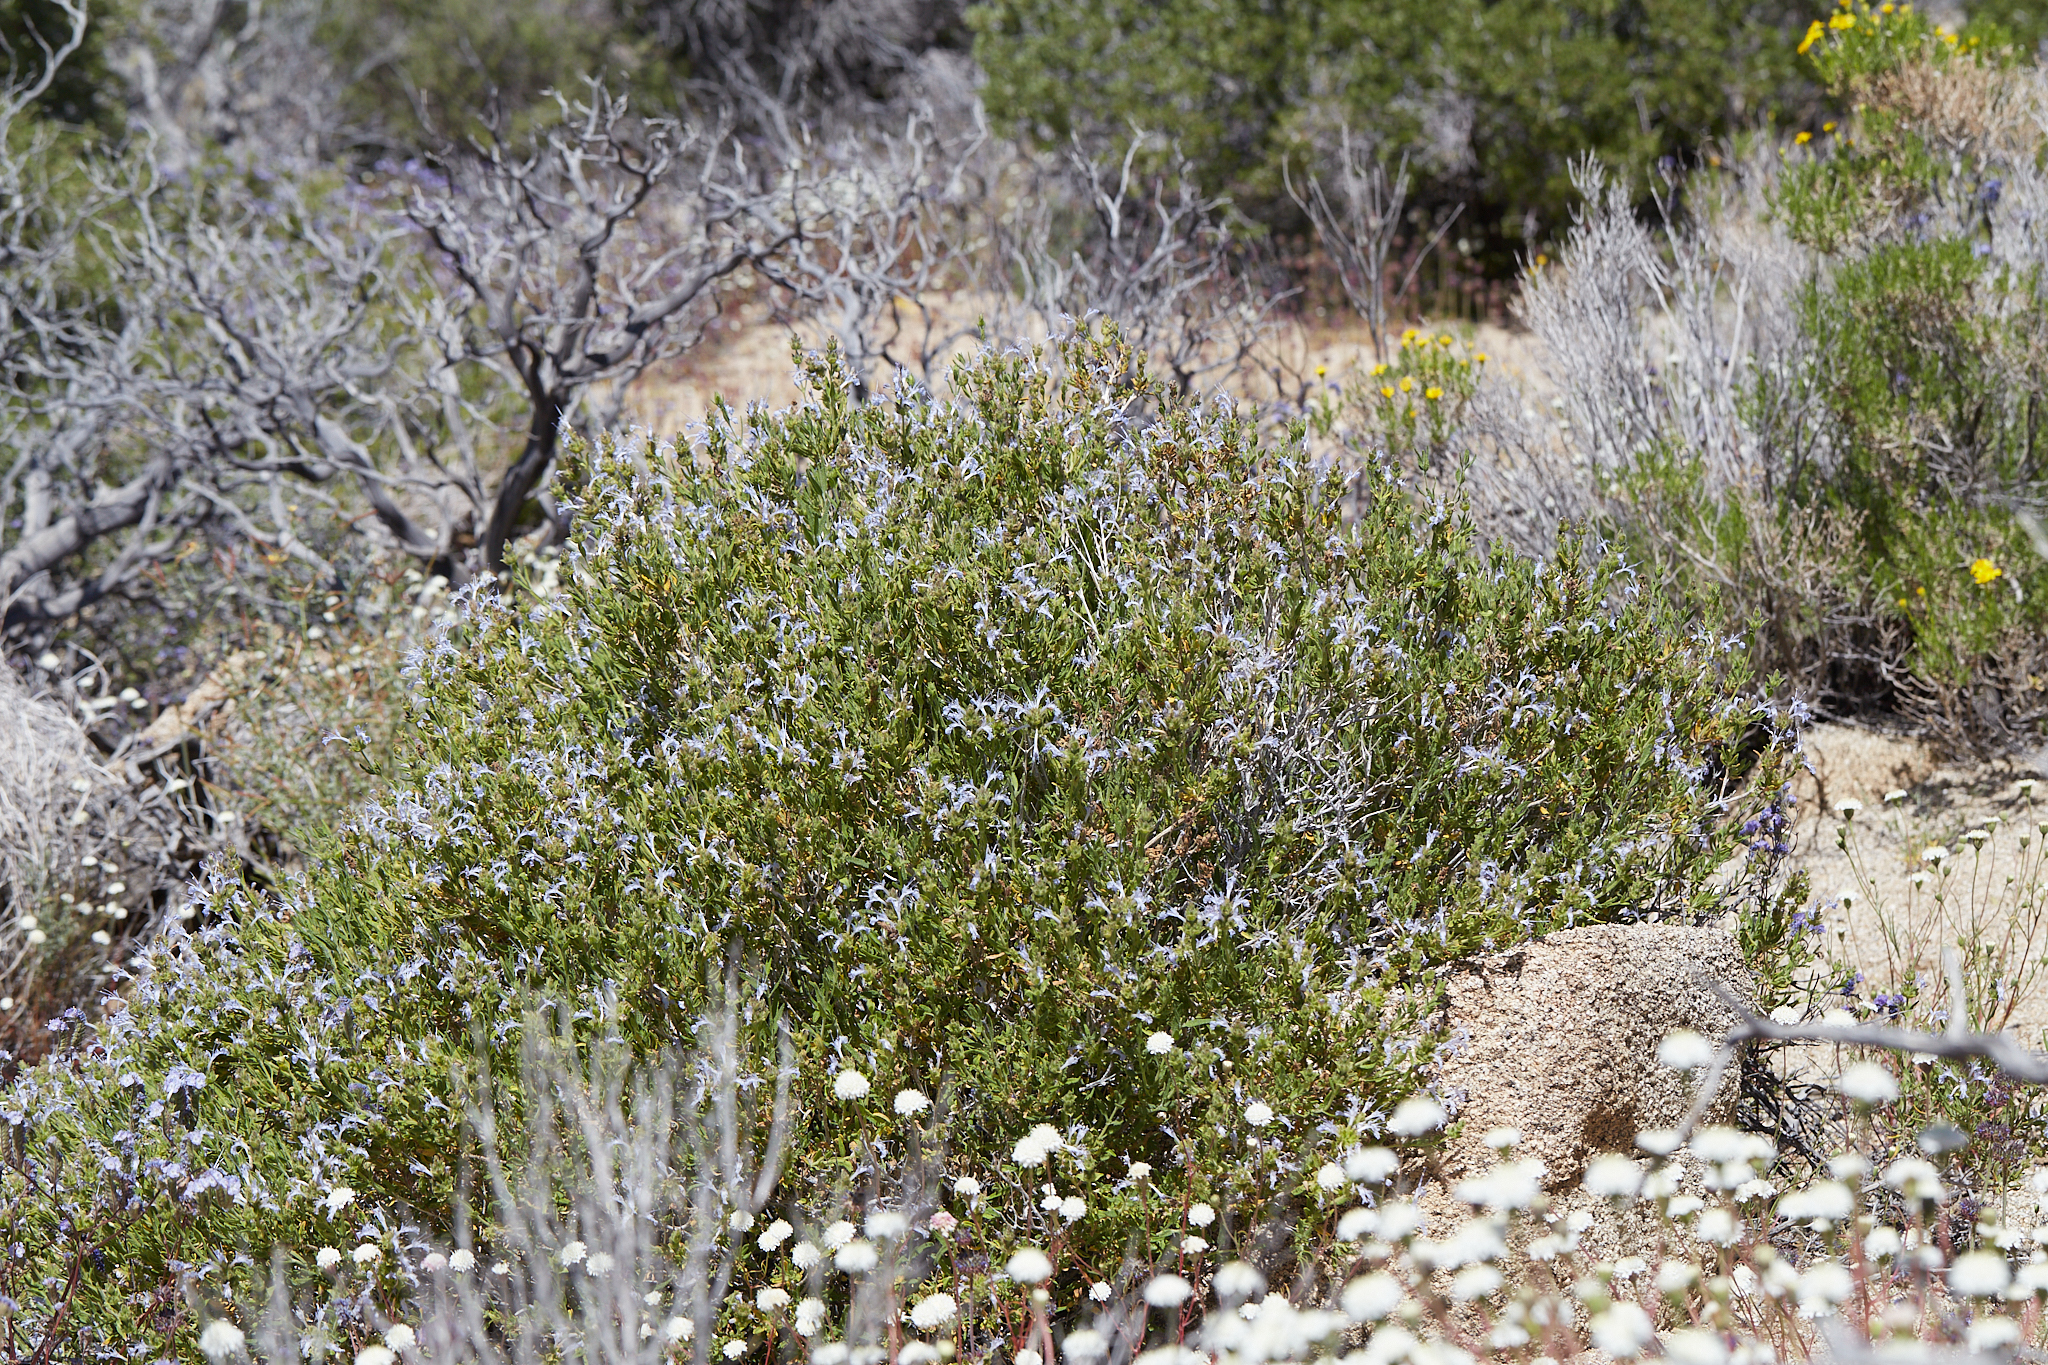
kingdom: Plantae
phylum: Tracheophyta
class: Magnoliopsida
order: Lamiales
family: Lamiaceae
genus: Salvia
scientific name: Salvia eremostachya
